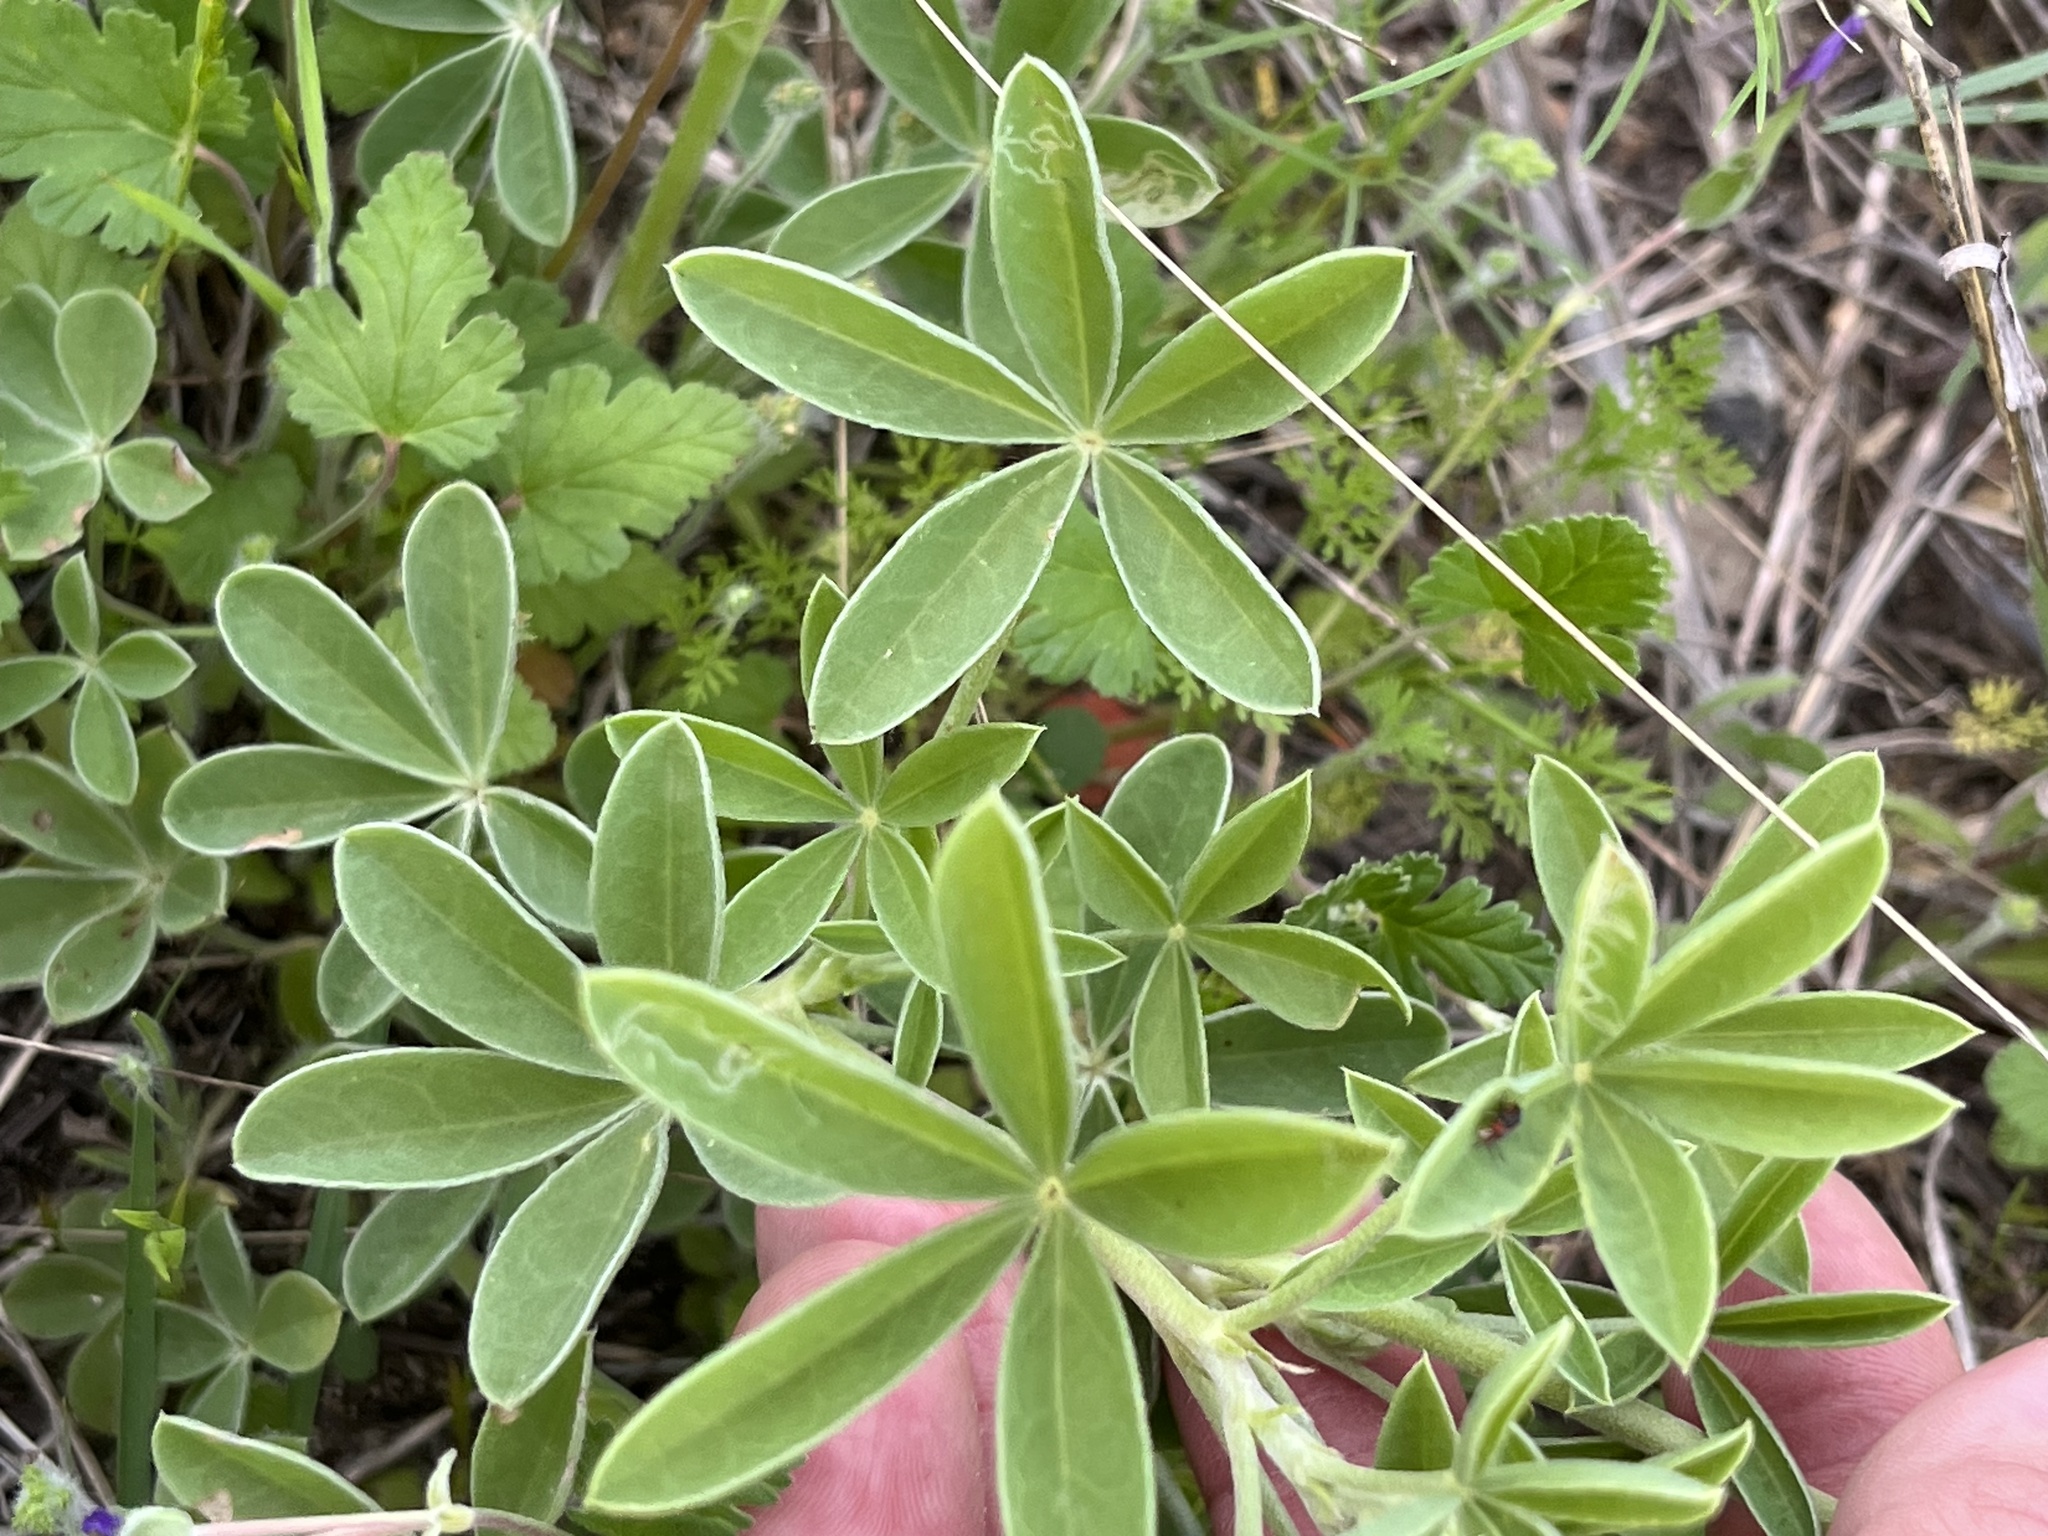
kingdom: Plantae
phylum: Tracheophyta
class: Magnoliopsida
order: Fabales
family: Fabaceae
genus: Lupinus
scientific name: Lupinus texensis
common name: Texas bluebonnet
